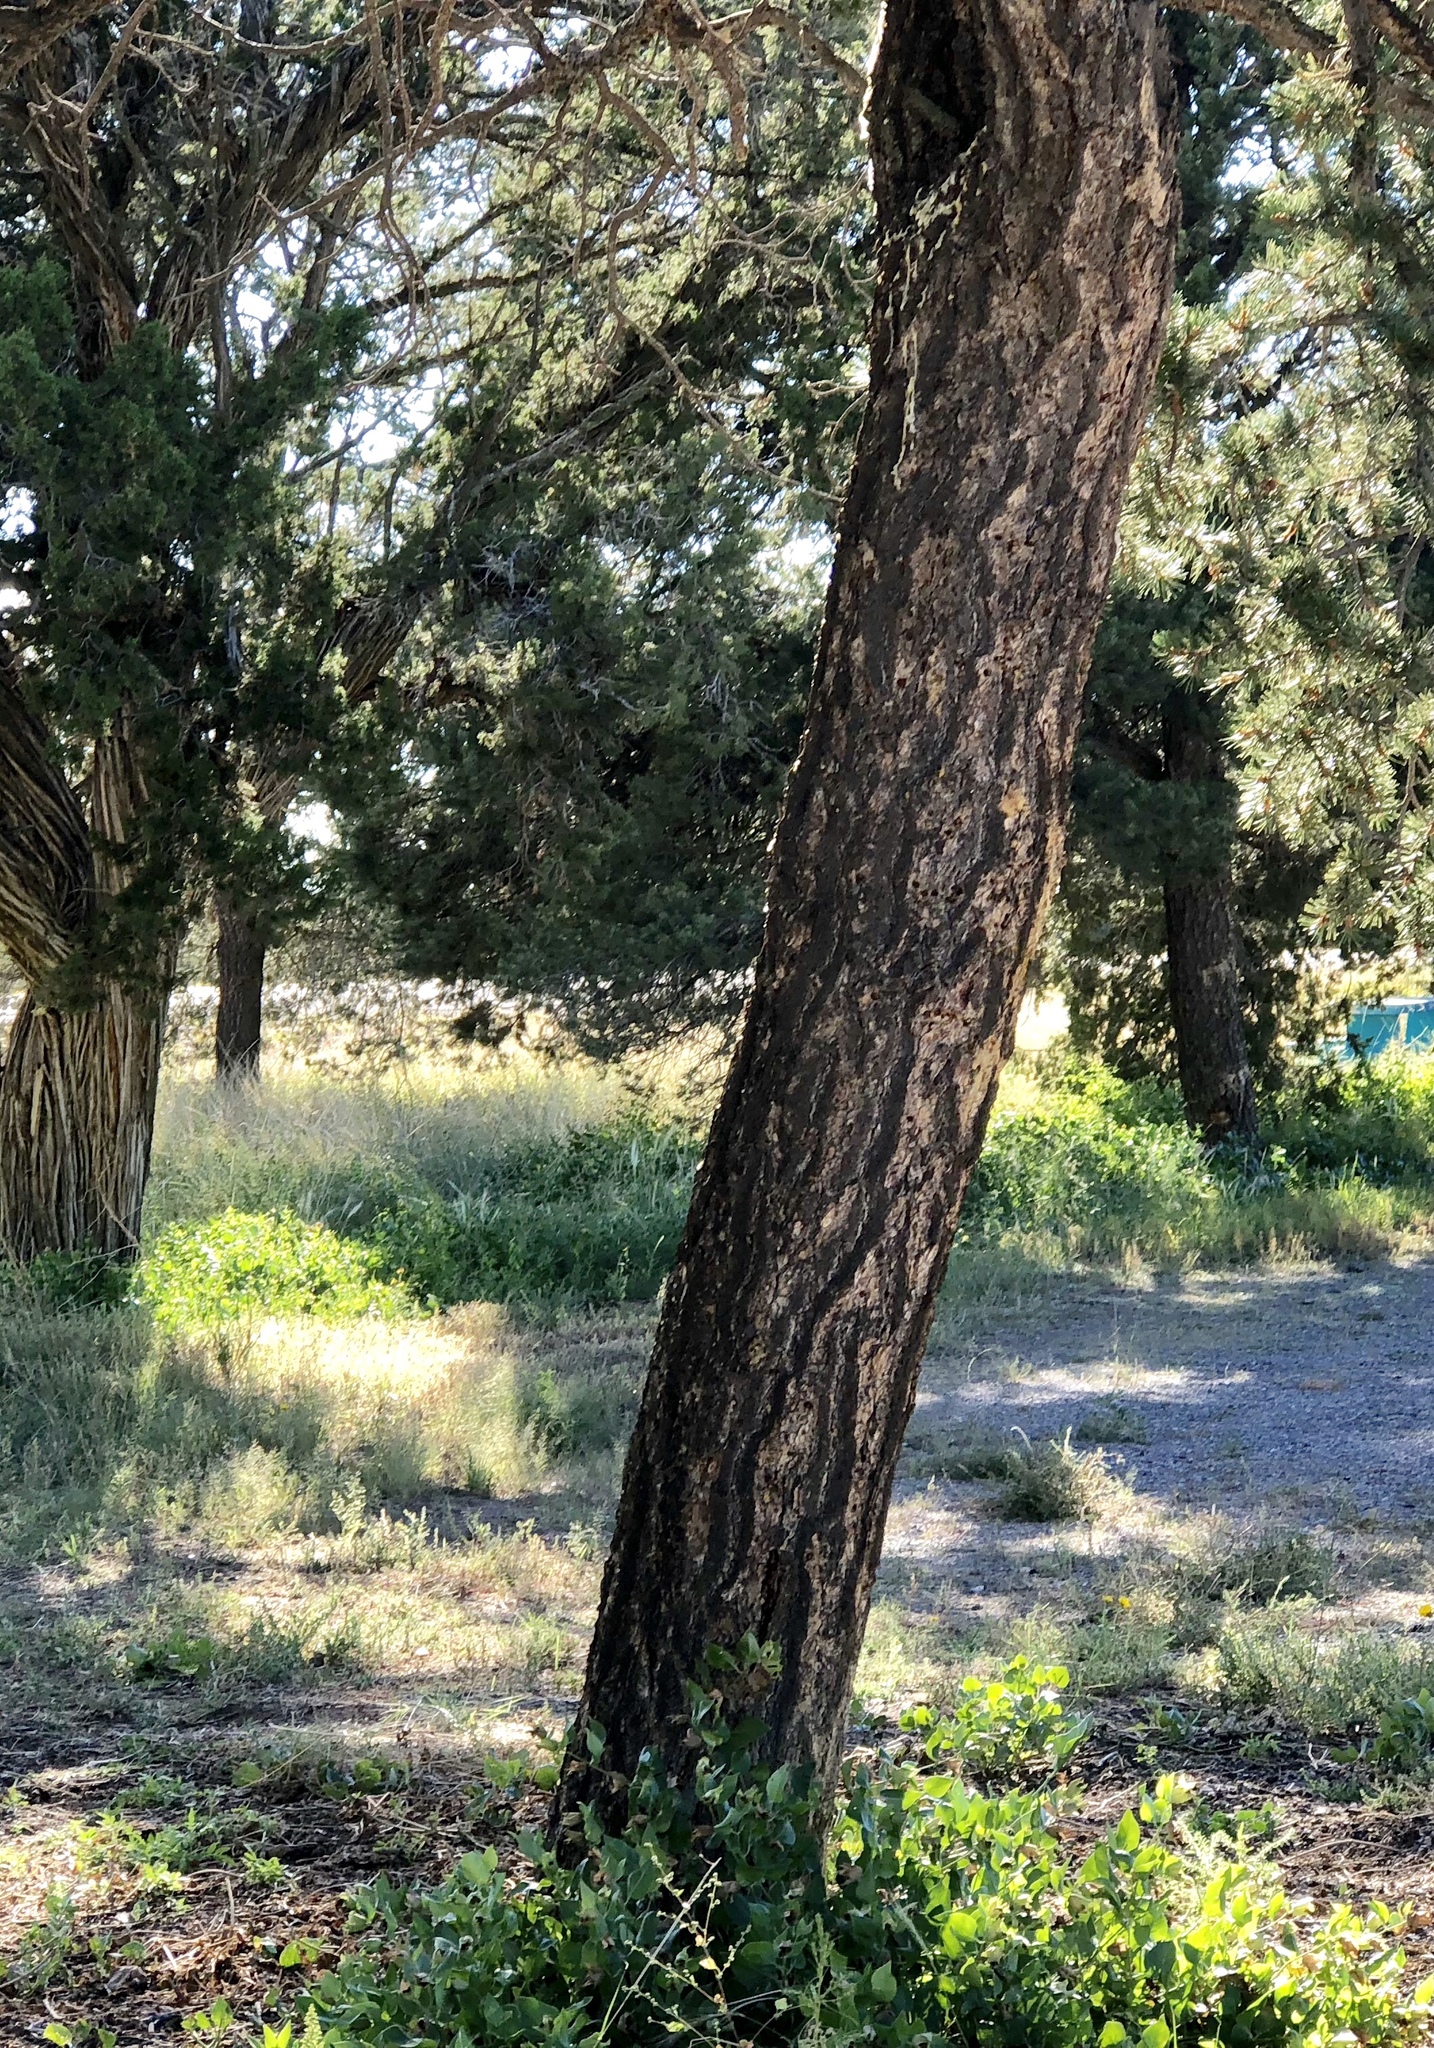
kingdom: Plantae
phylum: Tracheophyta
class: Pinopsida
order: Pinales
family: Pinaceae
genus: Pinus
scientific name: Pinus edulis
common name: Colorado pinyon
